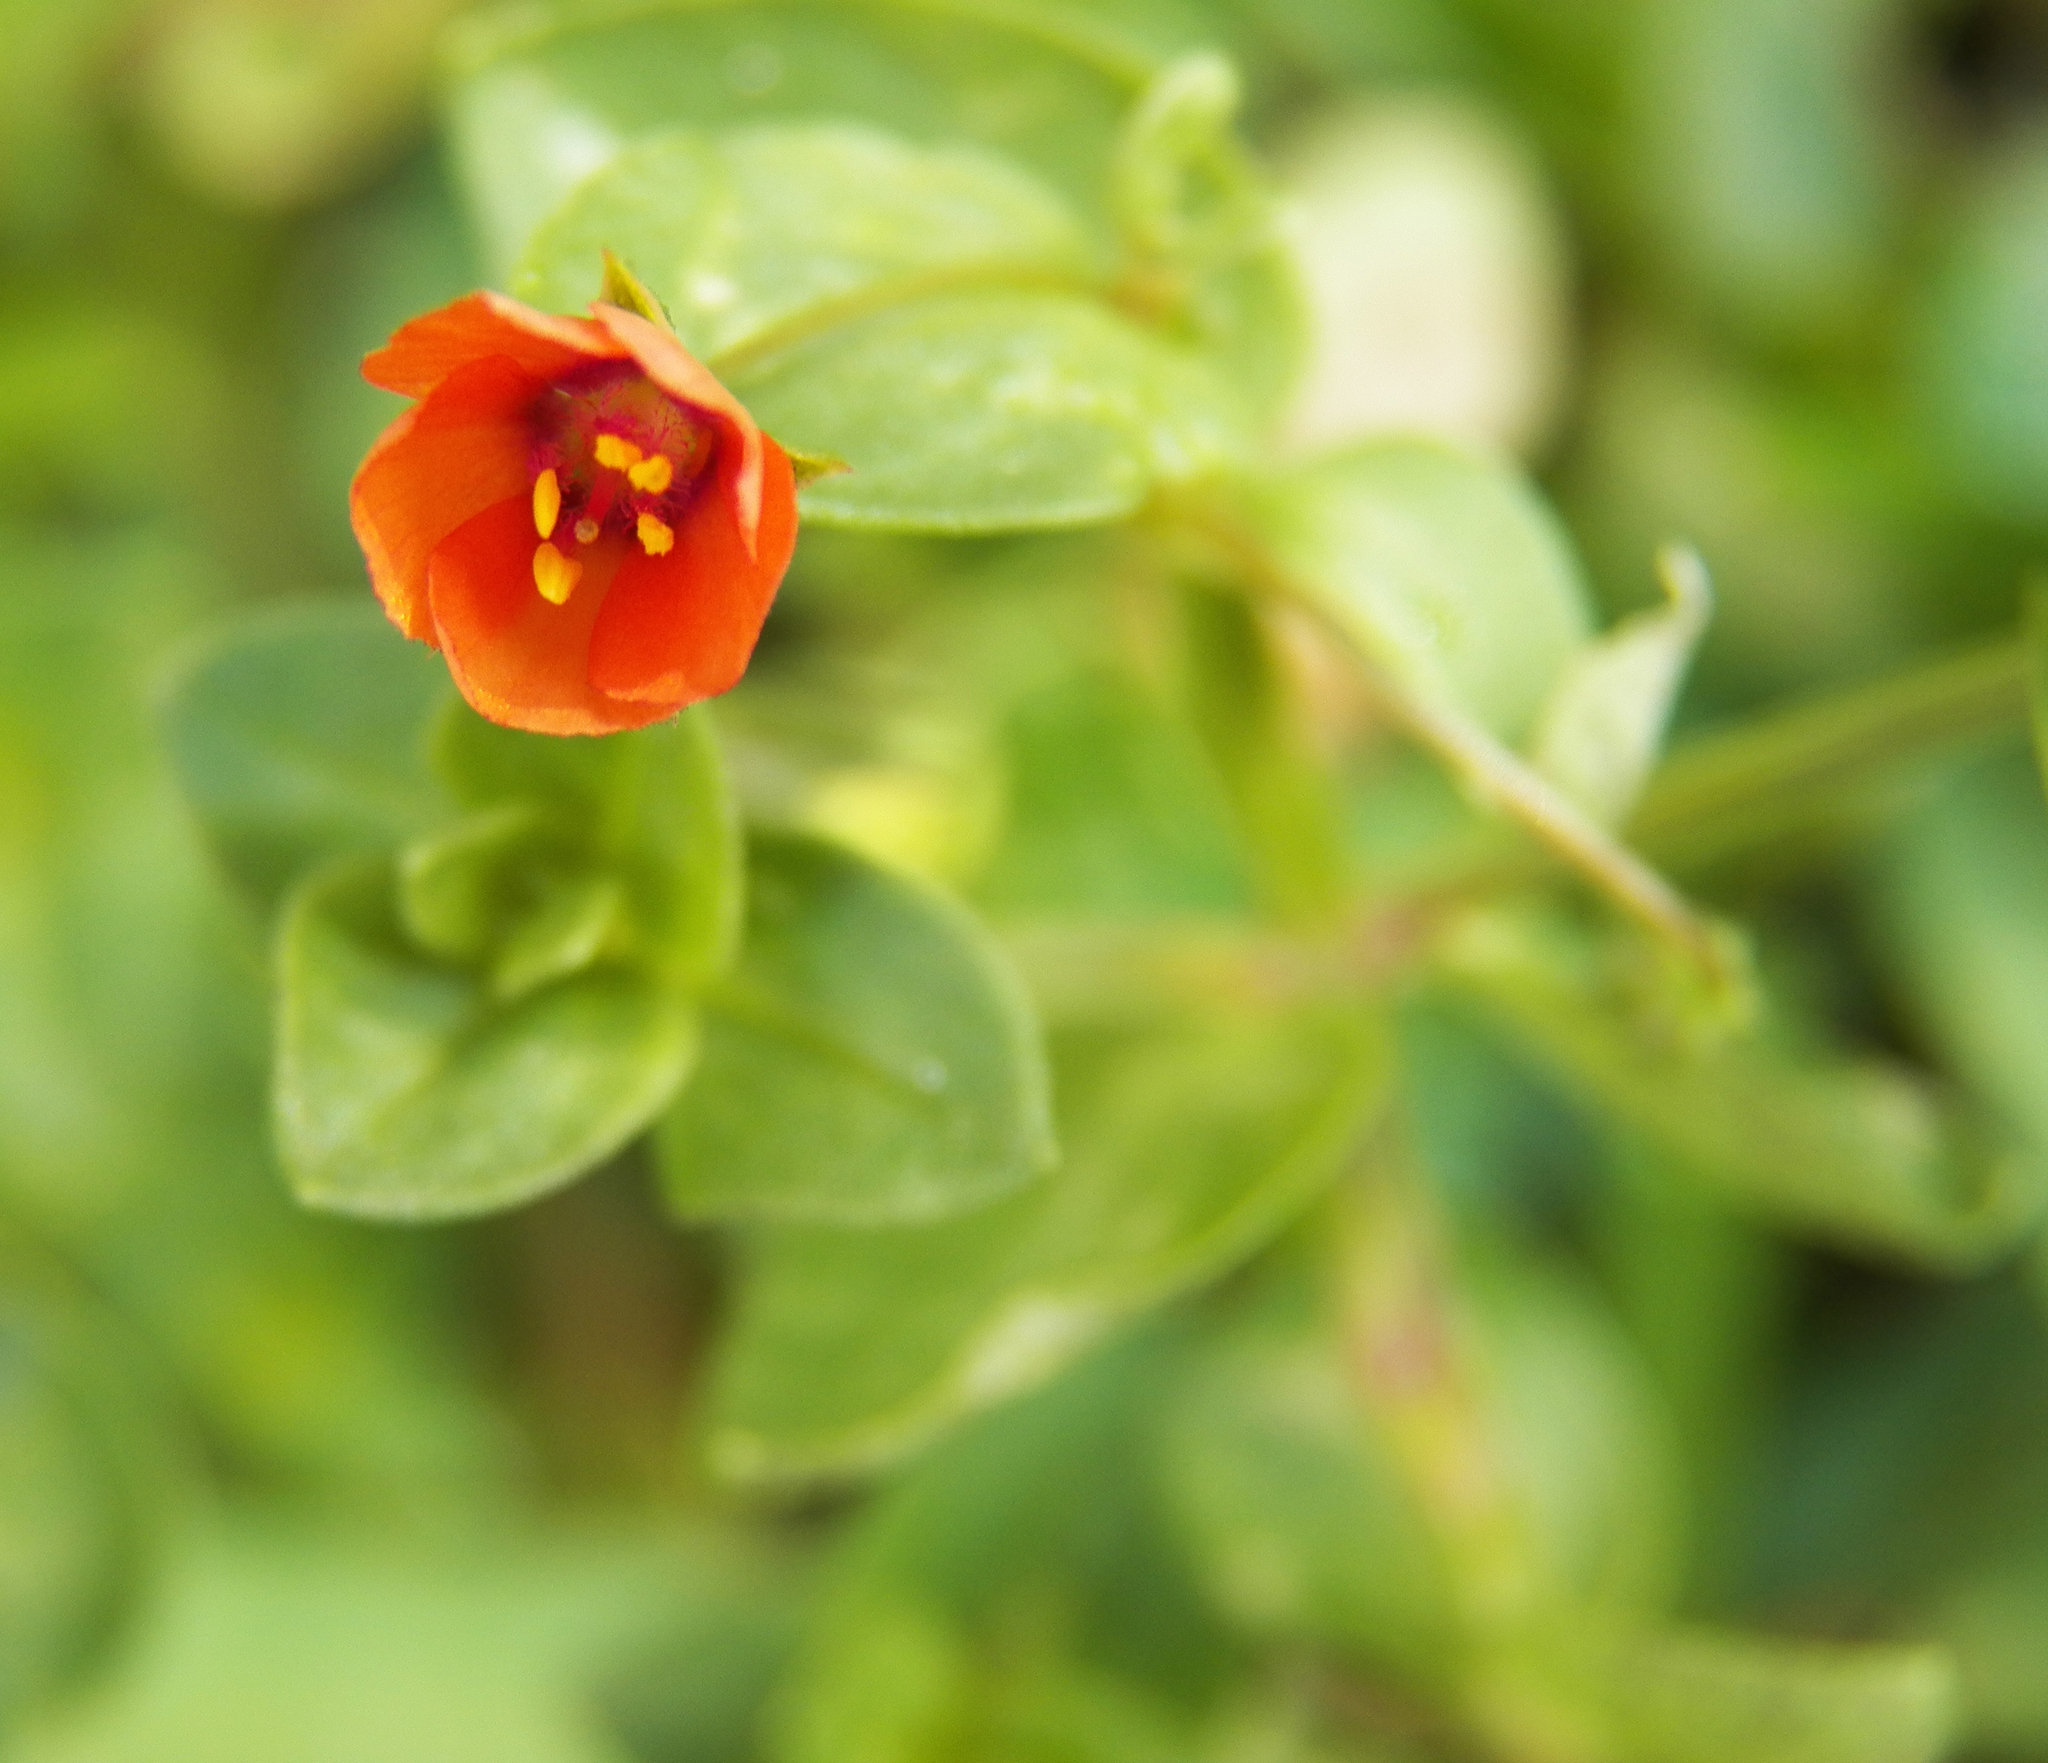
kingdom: Plantae
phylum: Tracheophyta
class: Magnoliopsida
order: Ericales
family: Primulaceae
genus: Lysimachia
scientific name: Lysimachia arvensis
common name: Scarlet pimpernel
